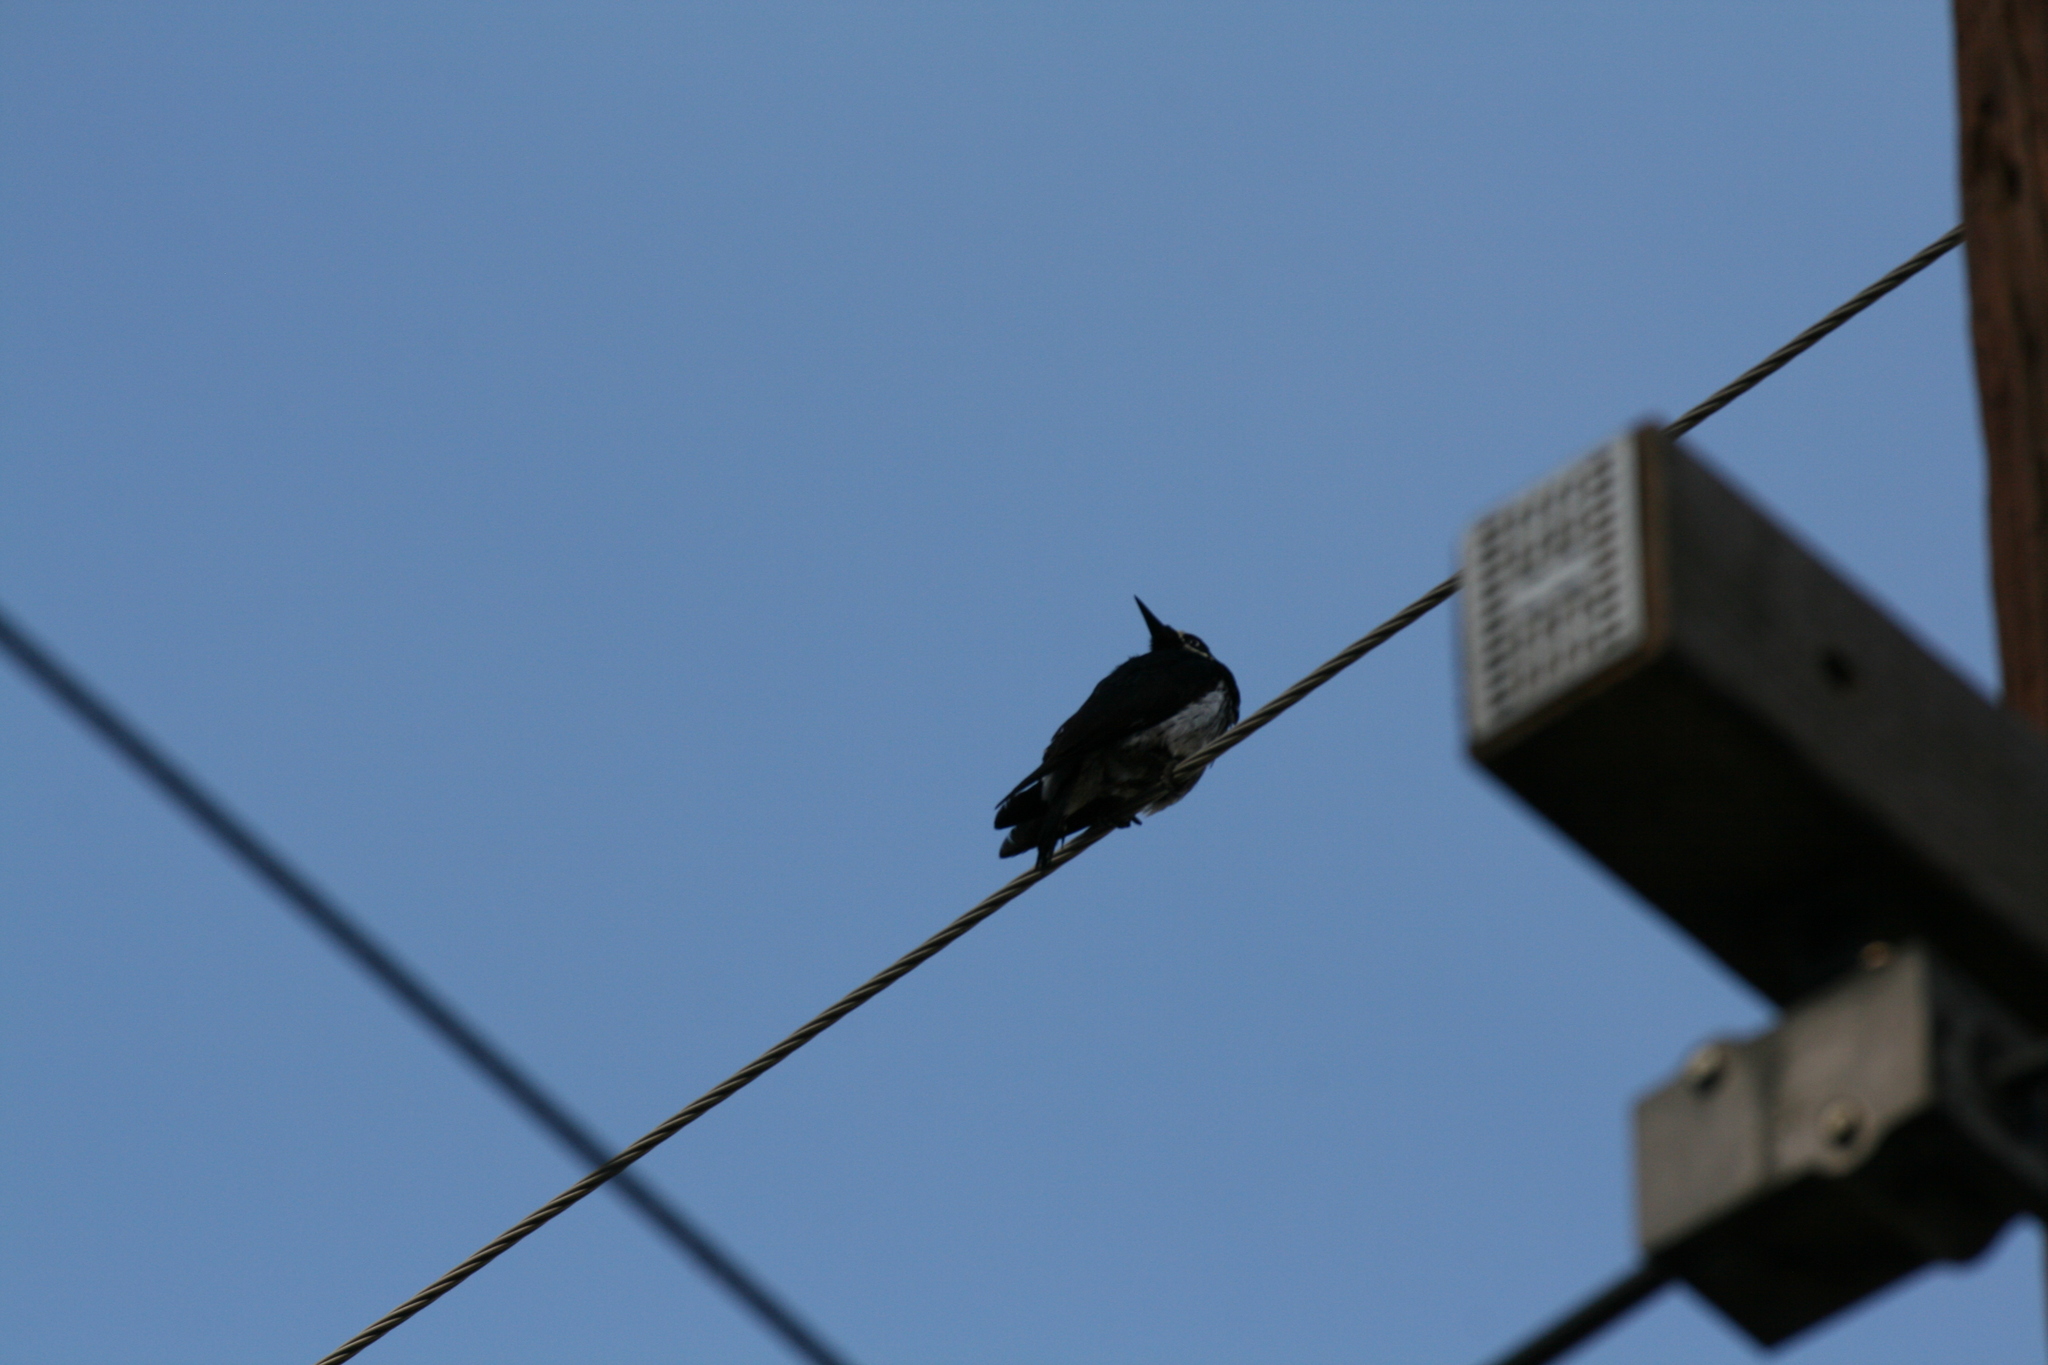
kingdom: Animalia
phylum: Chordata
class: Aves
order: Piciformes
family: Picidae
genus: Melanerpes
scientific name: Melanerpes formicivorus
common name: Acorn woodpecker
